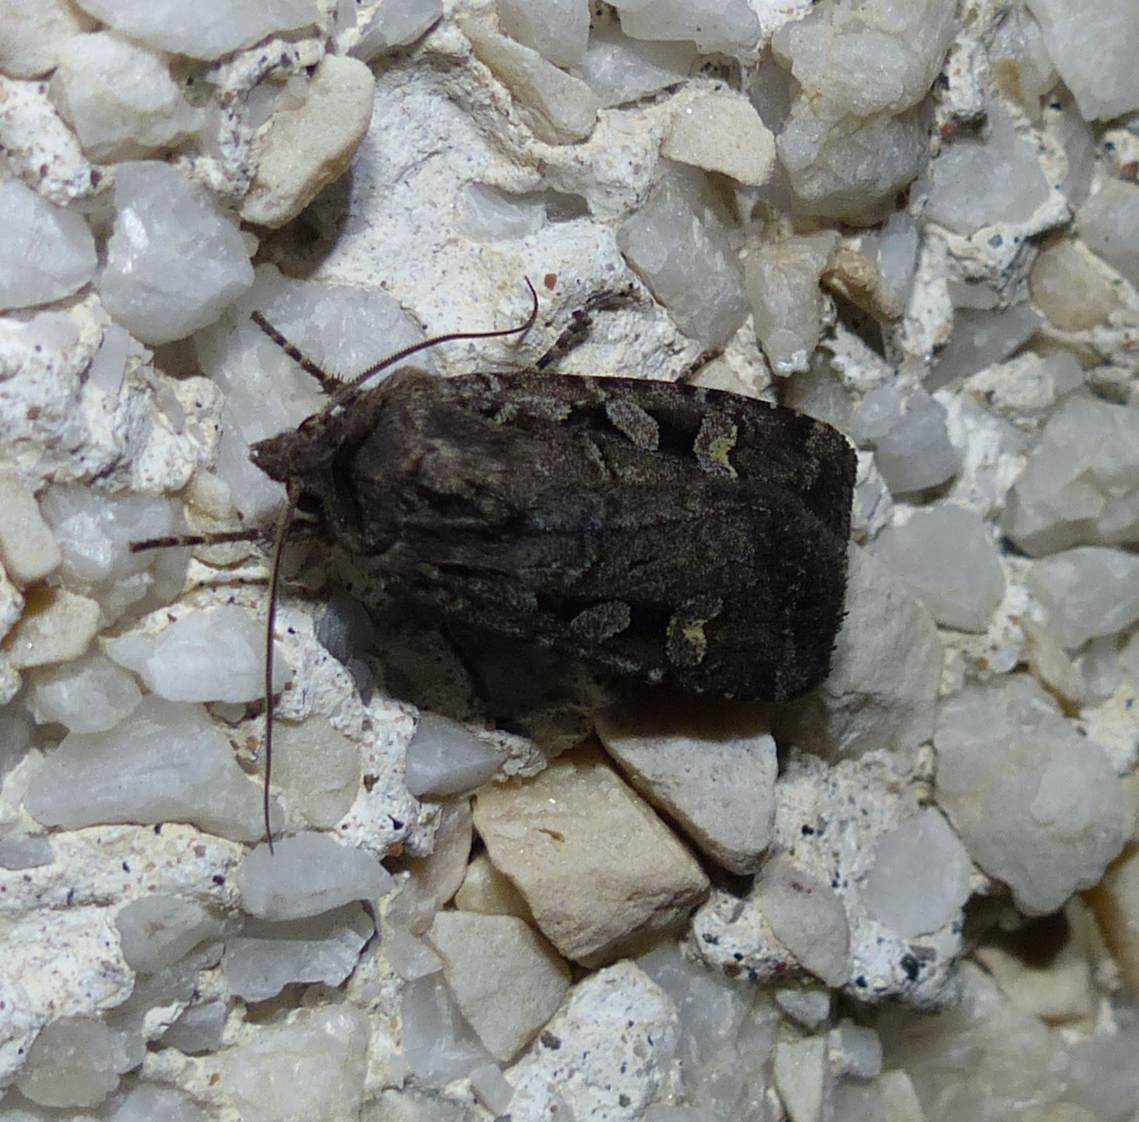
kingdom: Animalia
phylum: Arthropoda
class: Insecta
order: Lepidoptera
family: Noctuidae
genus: Euxoa
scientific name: Euxoa tessellata
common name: Striped cutworm
